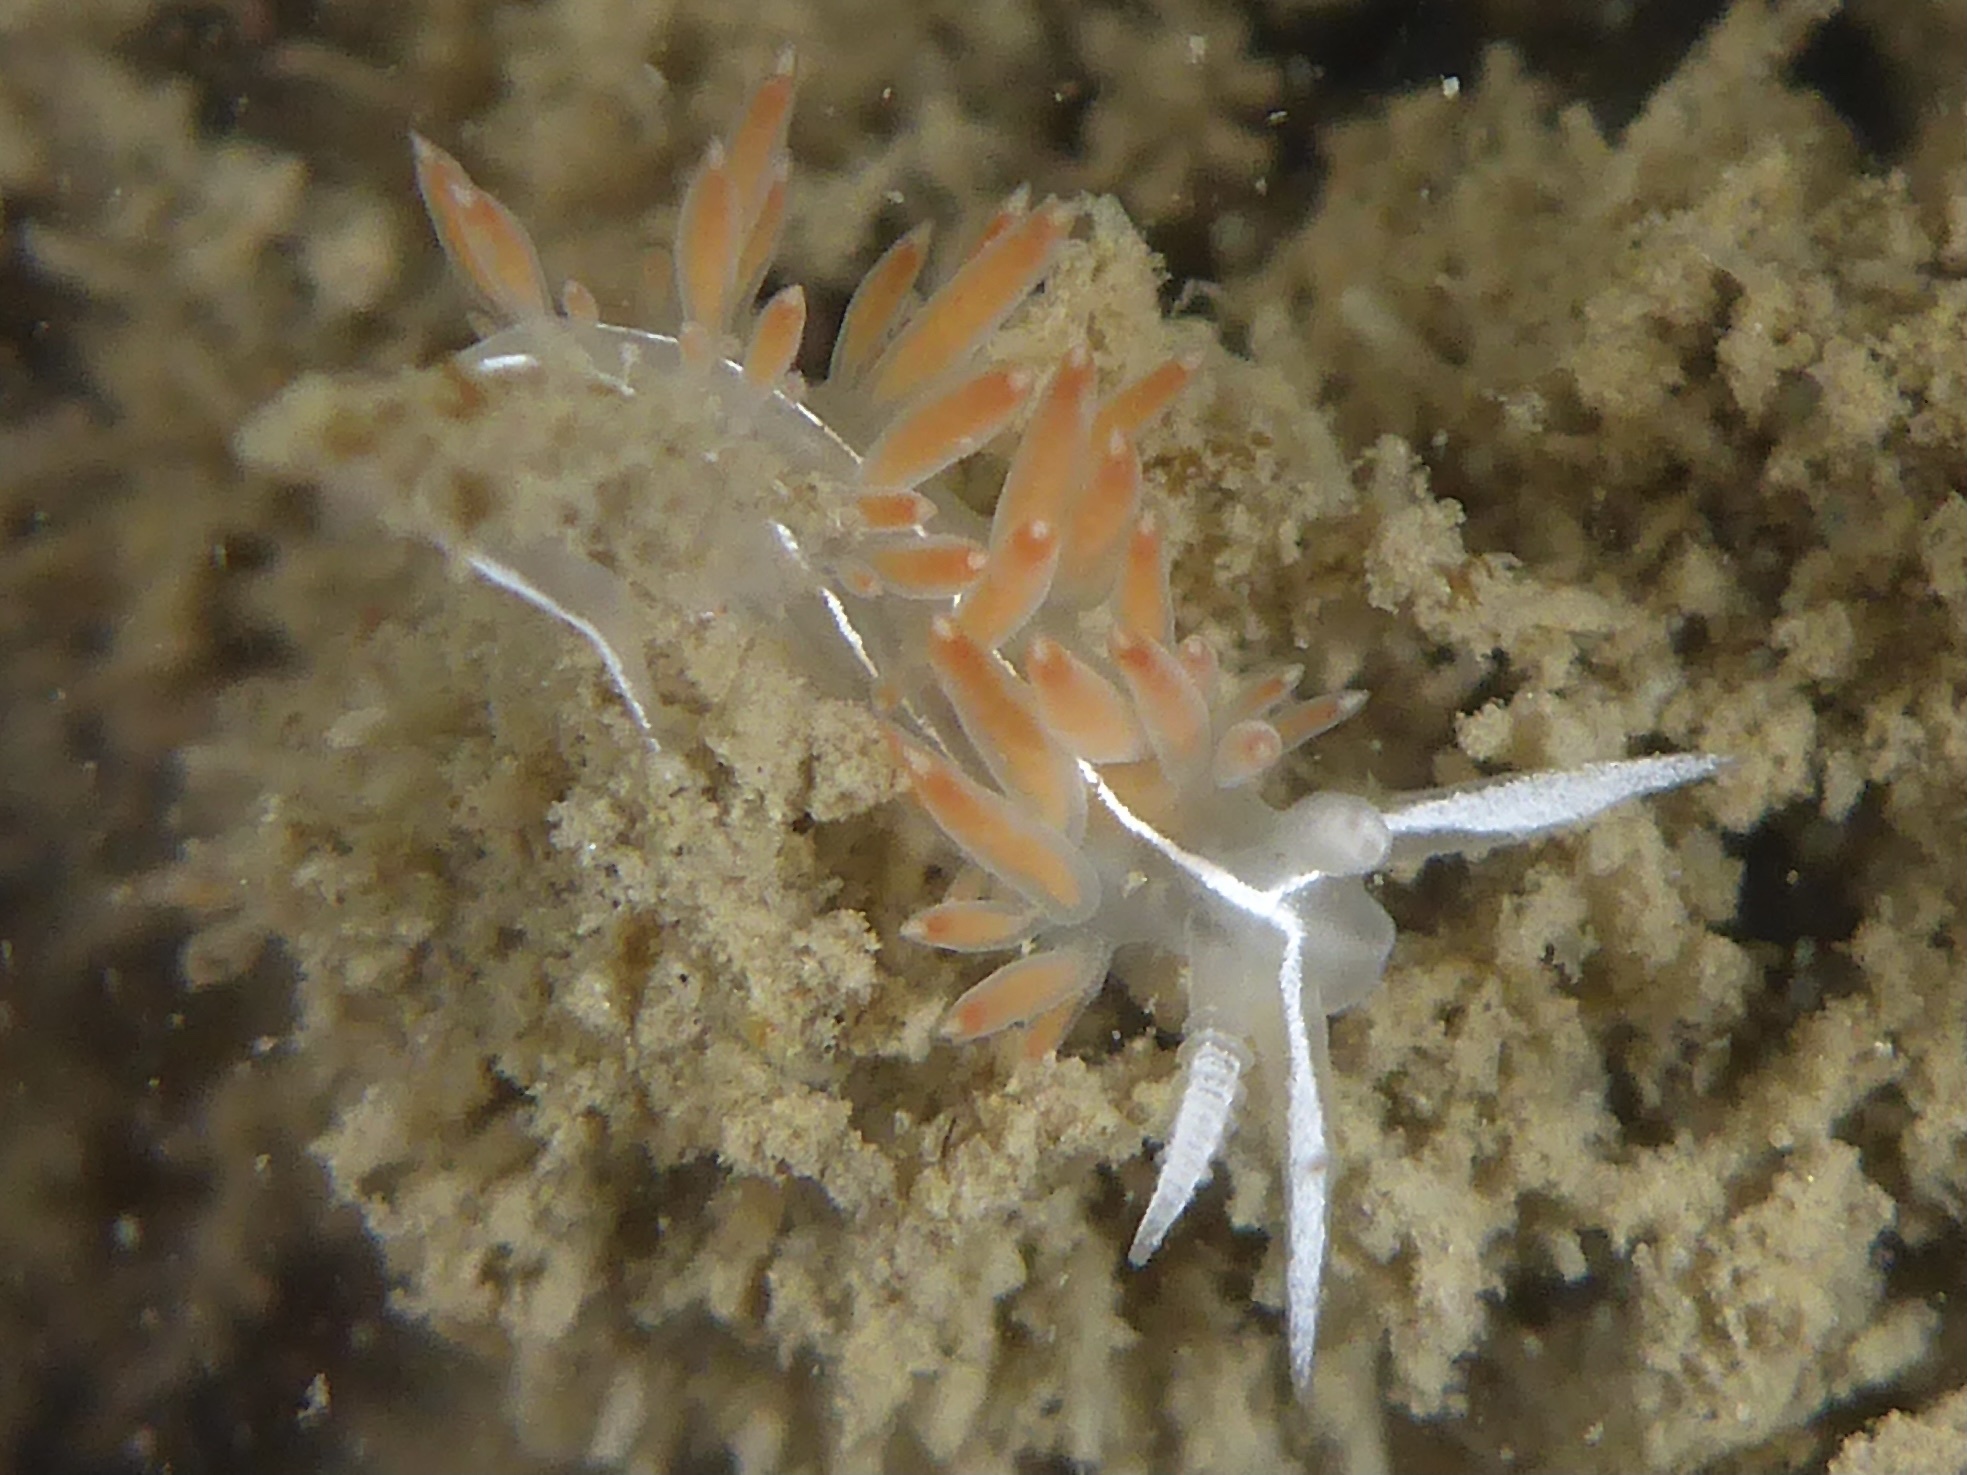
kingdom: Animalia
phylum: Mollusca
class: Gastropoda
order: Nudibranchia
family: Coryphellidae
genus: Coryphella
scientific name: Coryphella trilineata
